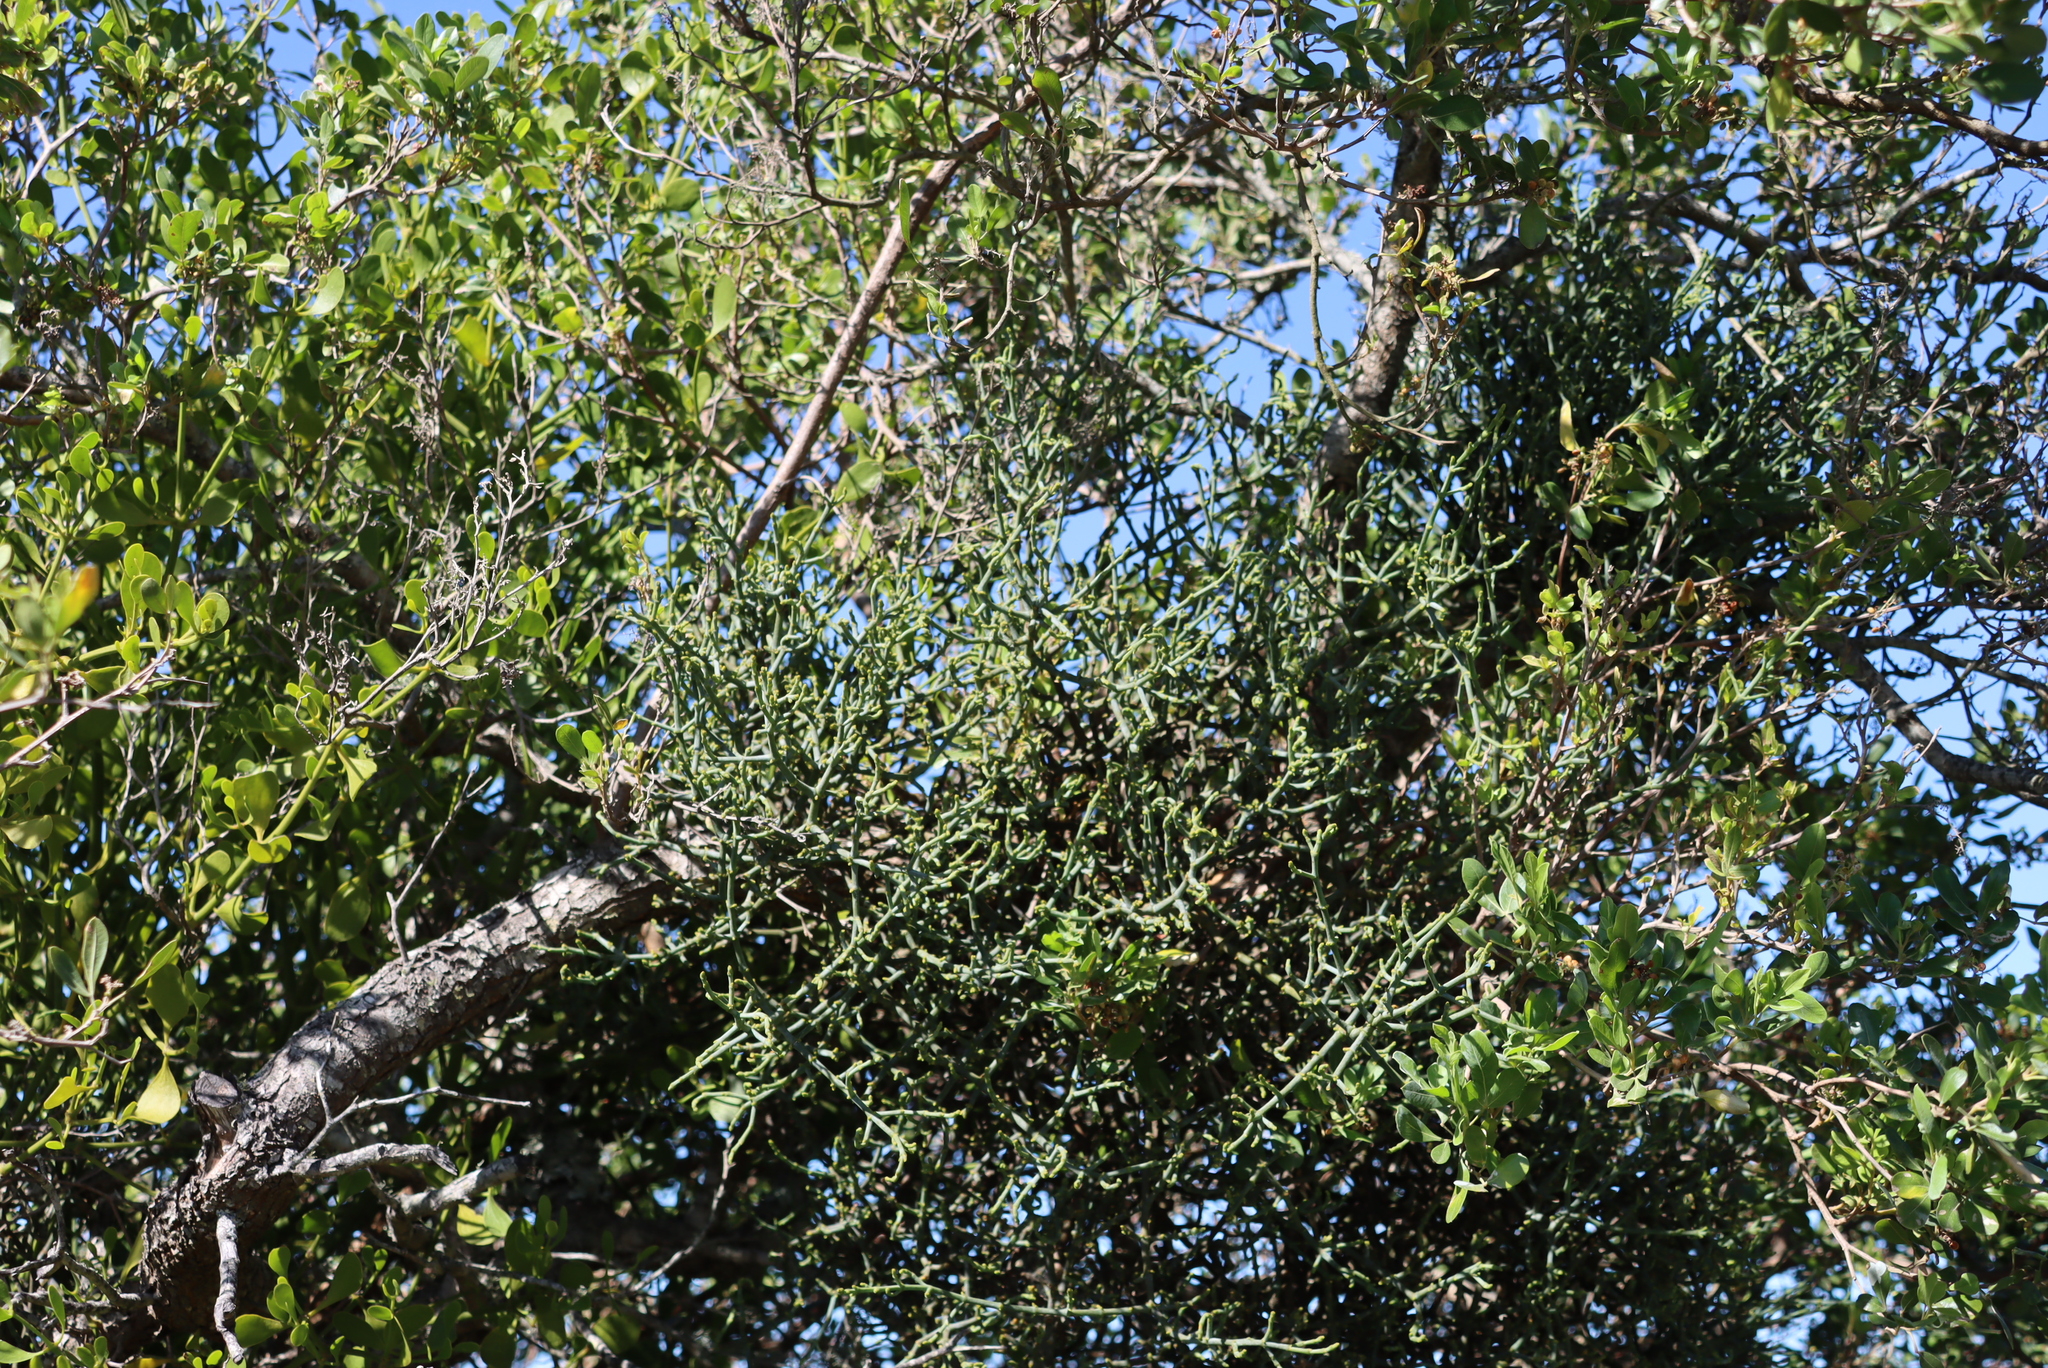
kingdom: Plantae
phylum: Tracheophyta
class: Magnoliopsida
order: Santalales
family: Viscaceae
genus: Viscum
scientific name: Viscum capense
